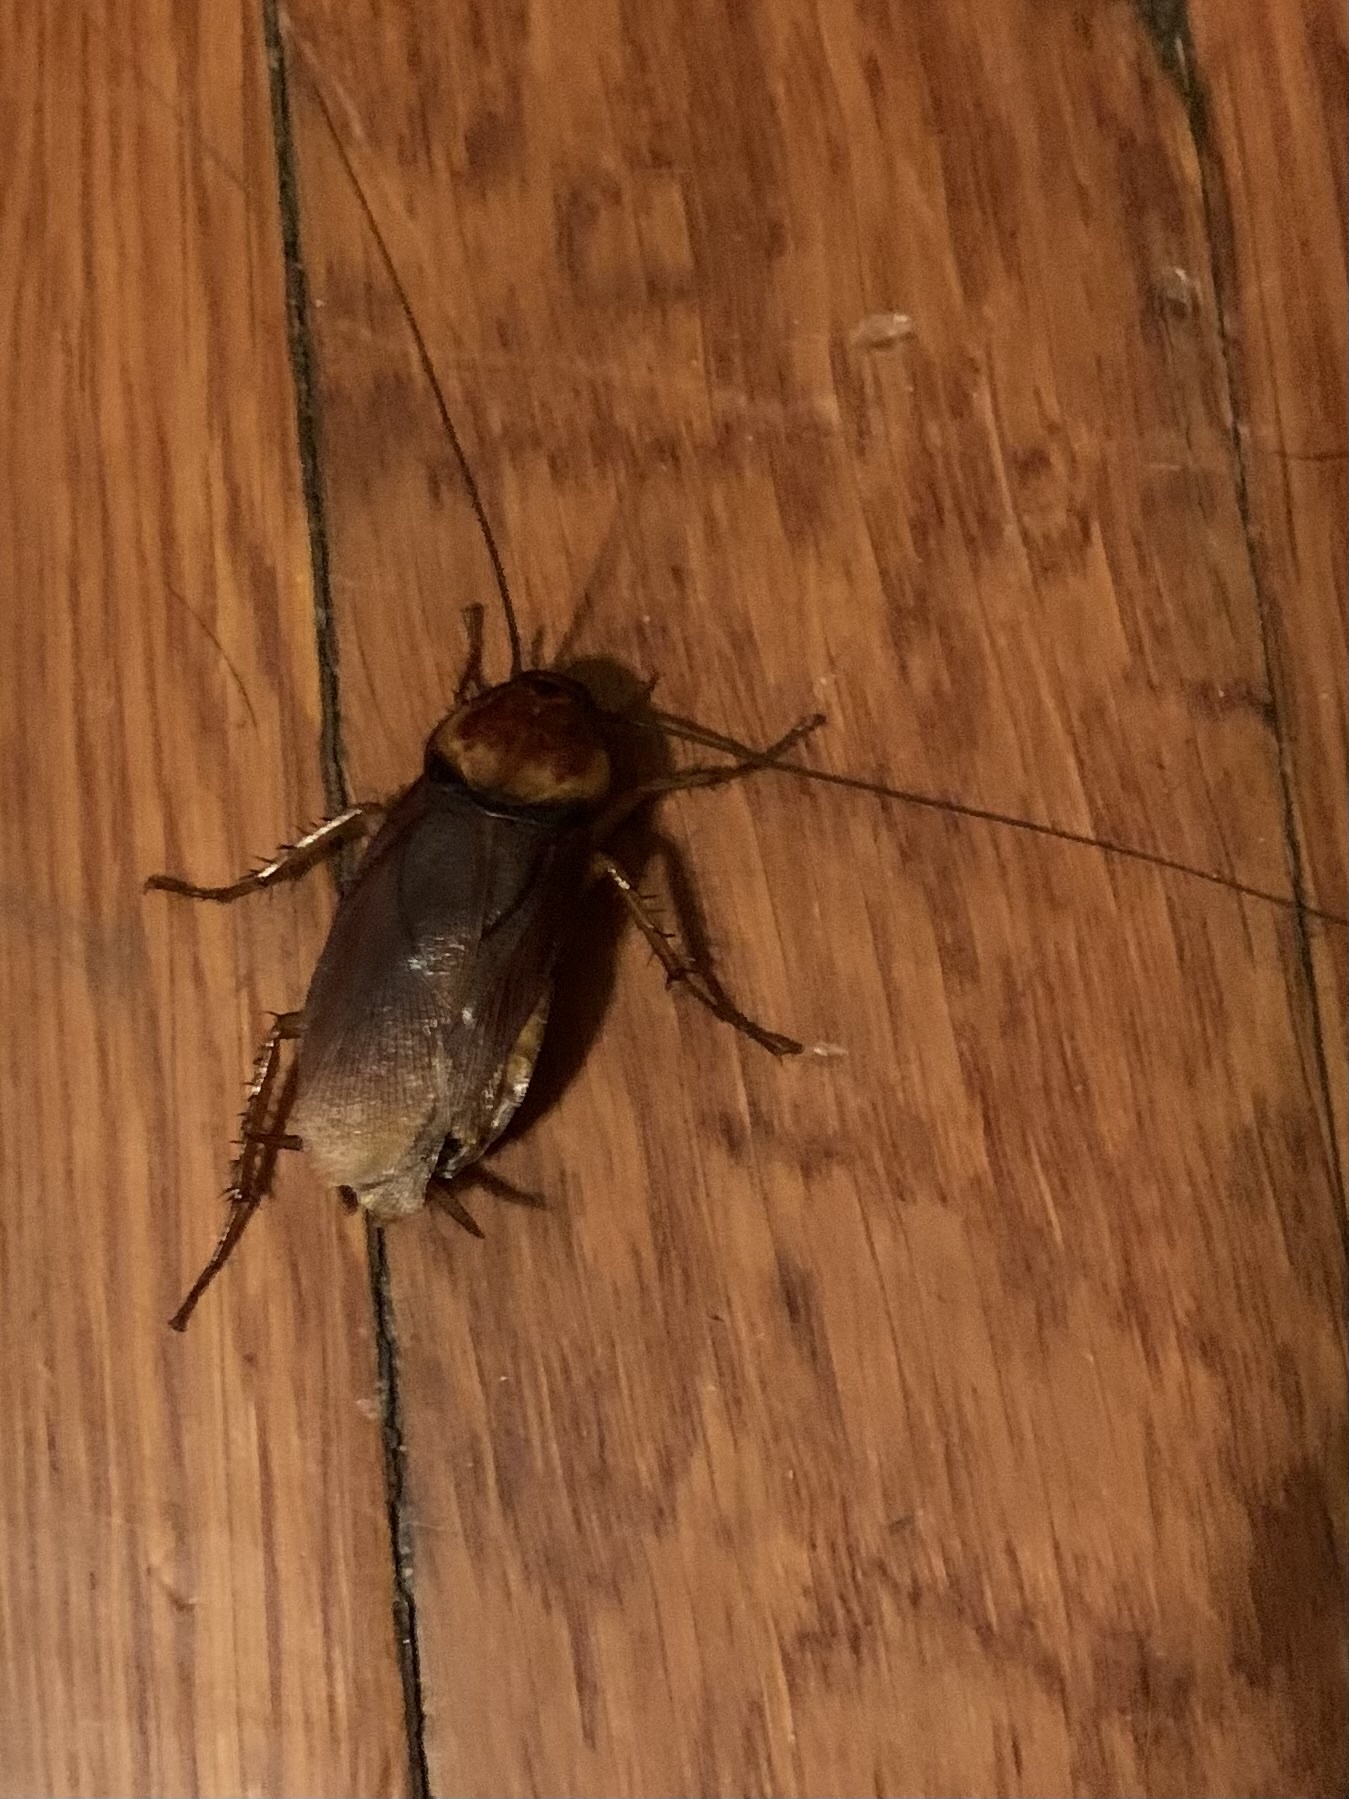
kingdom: Animalia
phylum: Arthropoda
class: Insecta
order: Blattodea
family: Blattidae
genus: Periplaneta
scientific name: Periplaneta americana
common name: American cockroach
